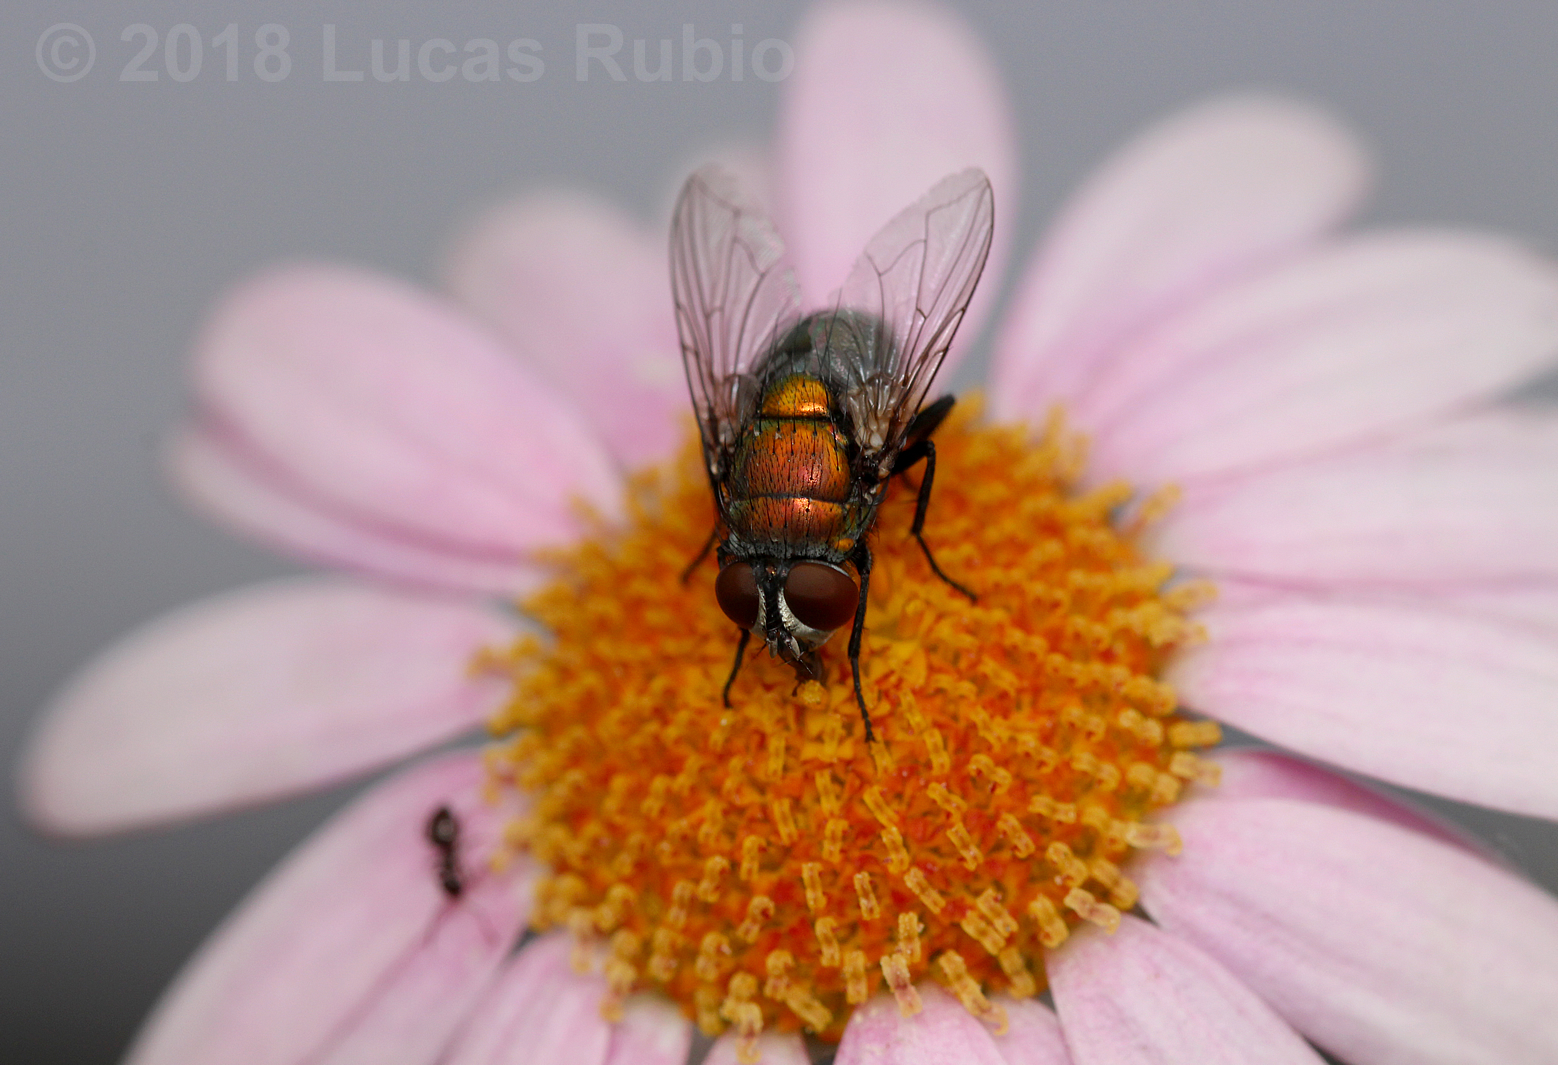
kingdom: Animalia
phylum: Arthropoda
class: Insecta
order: Diptera
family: Calliphoridae
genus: Lucilia
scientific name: Lucilia cuprina
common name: Sheep blow fly
